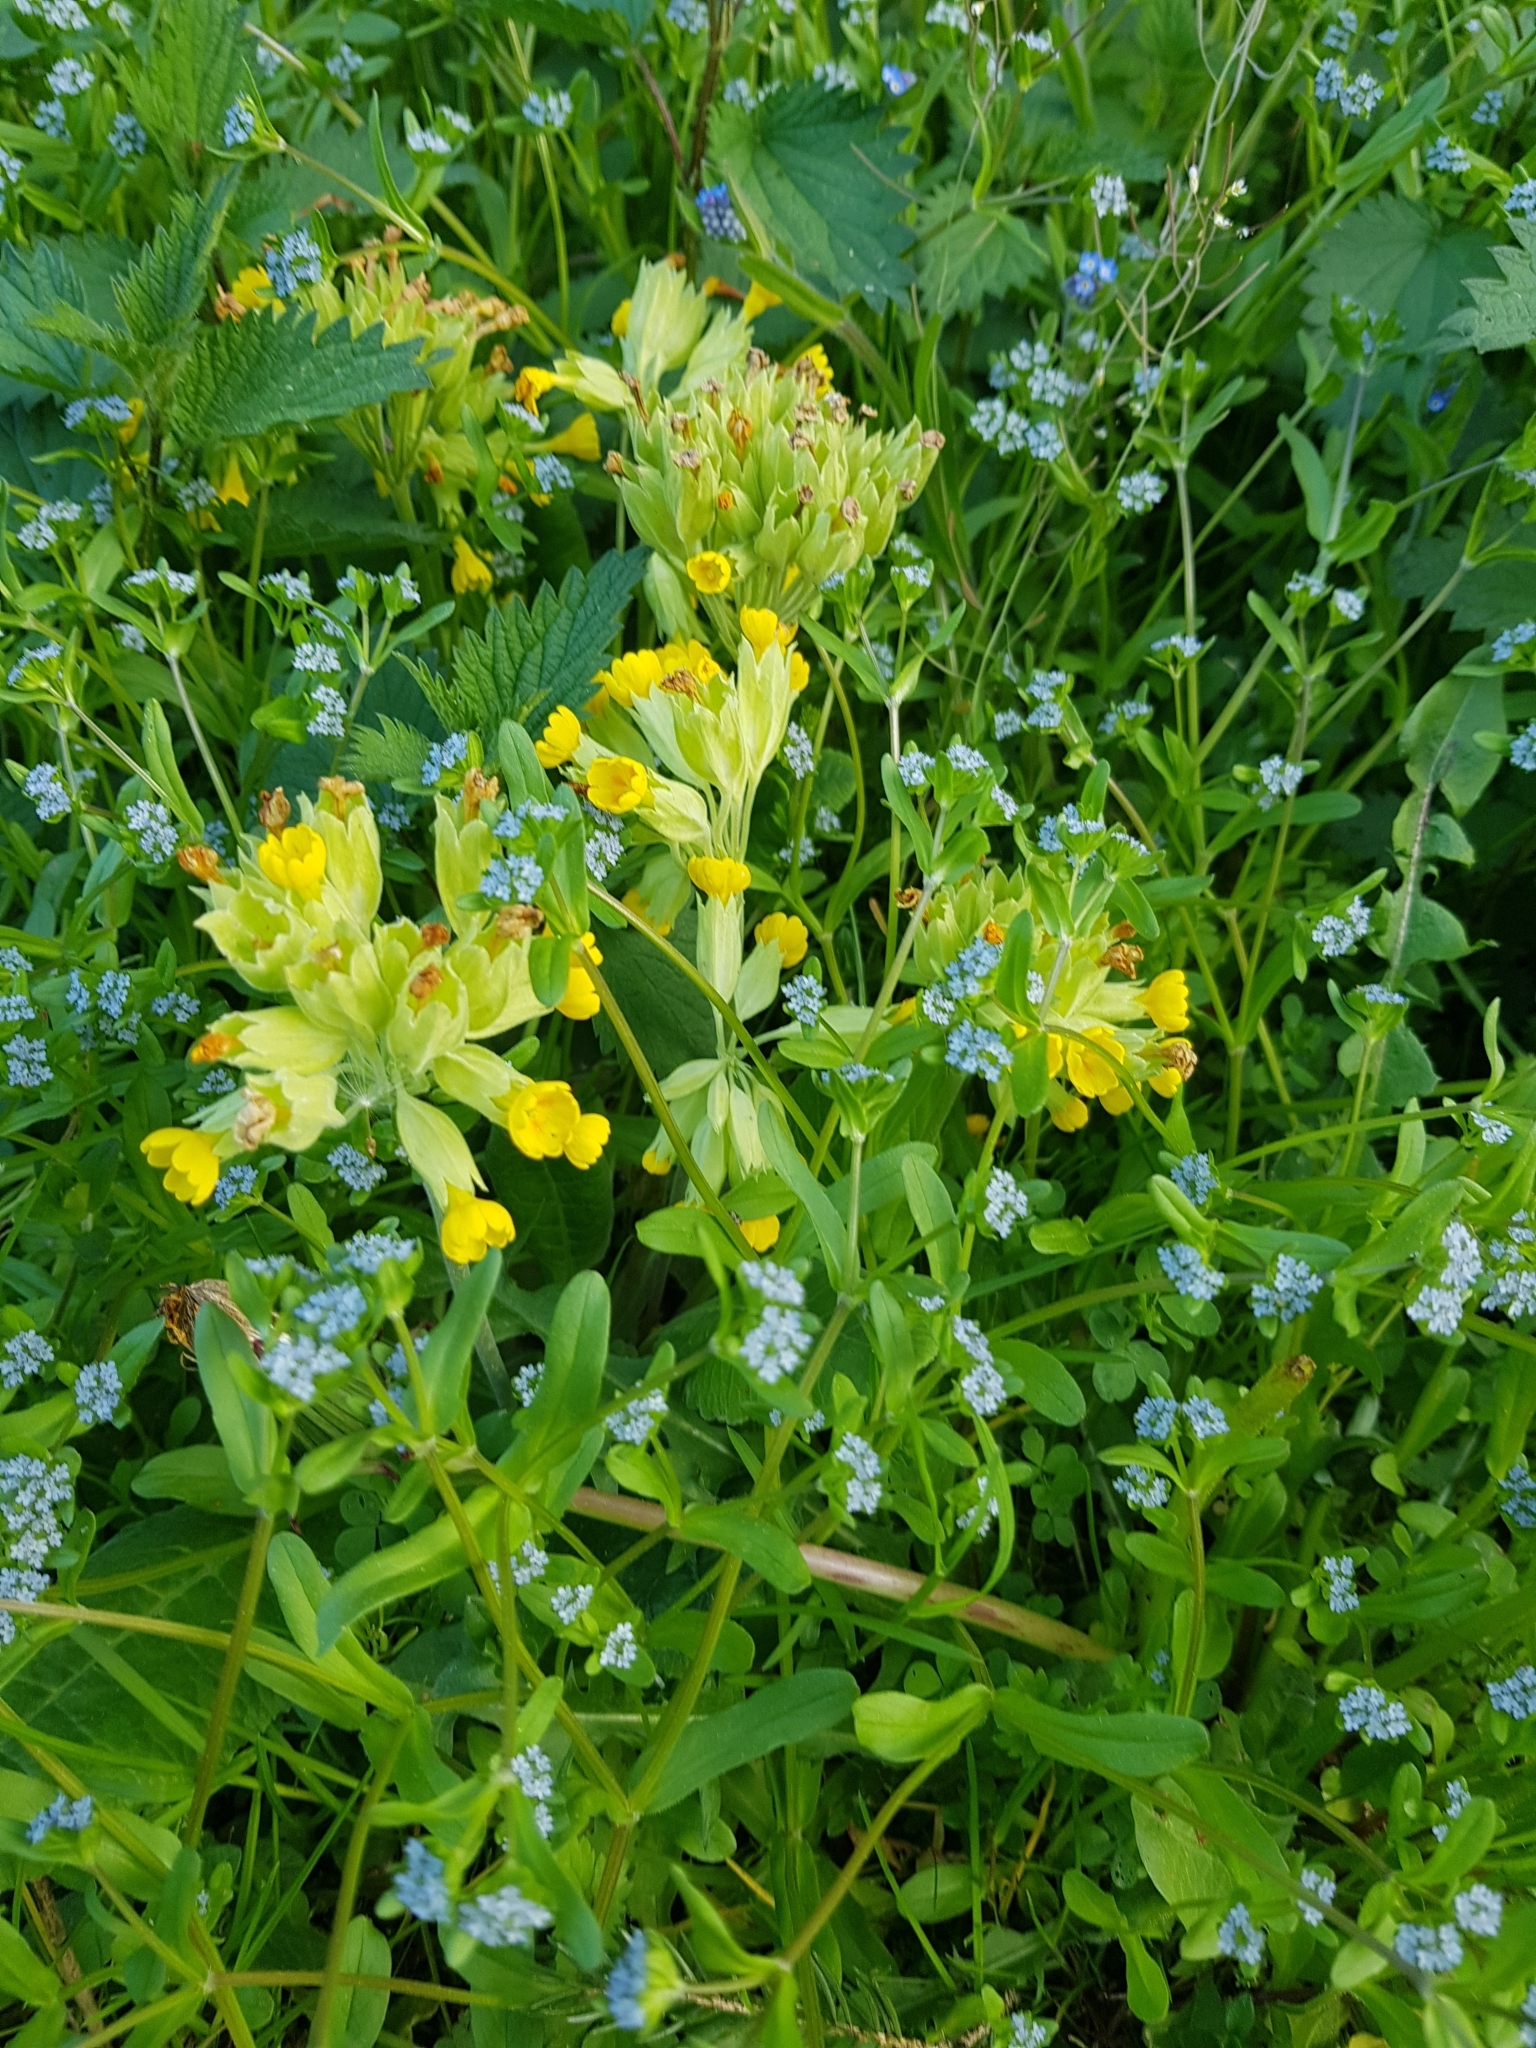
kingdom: Plantae
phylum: Tracheophyta
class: Magnoliopsida
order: Ericales
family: Primulaceae
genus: Primula
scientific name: Primula veris
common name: Cowslip
